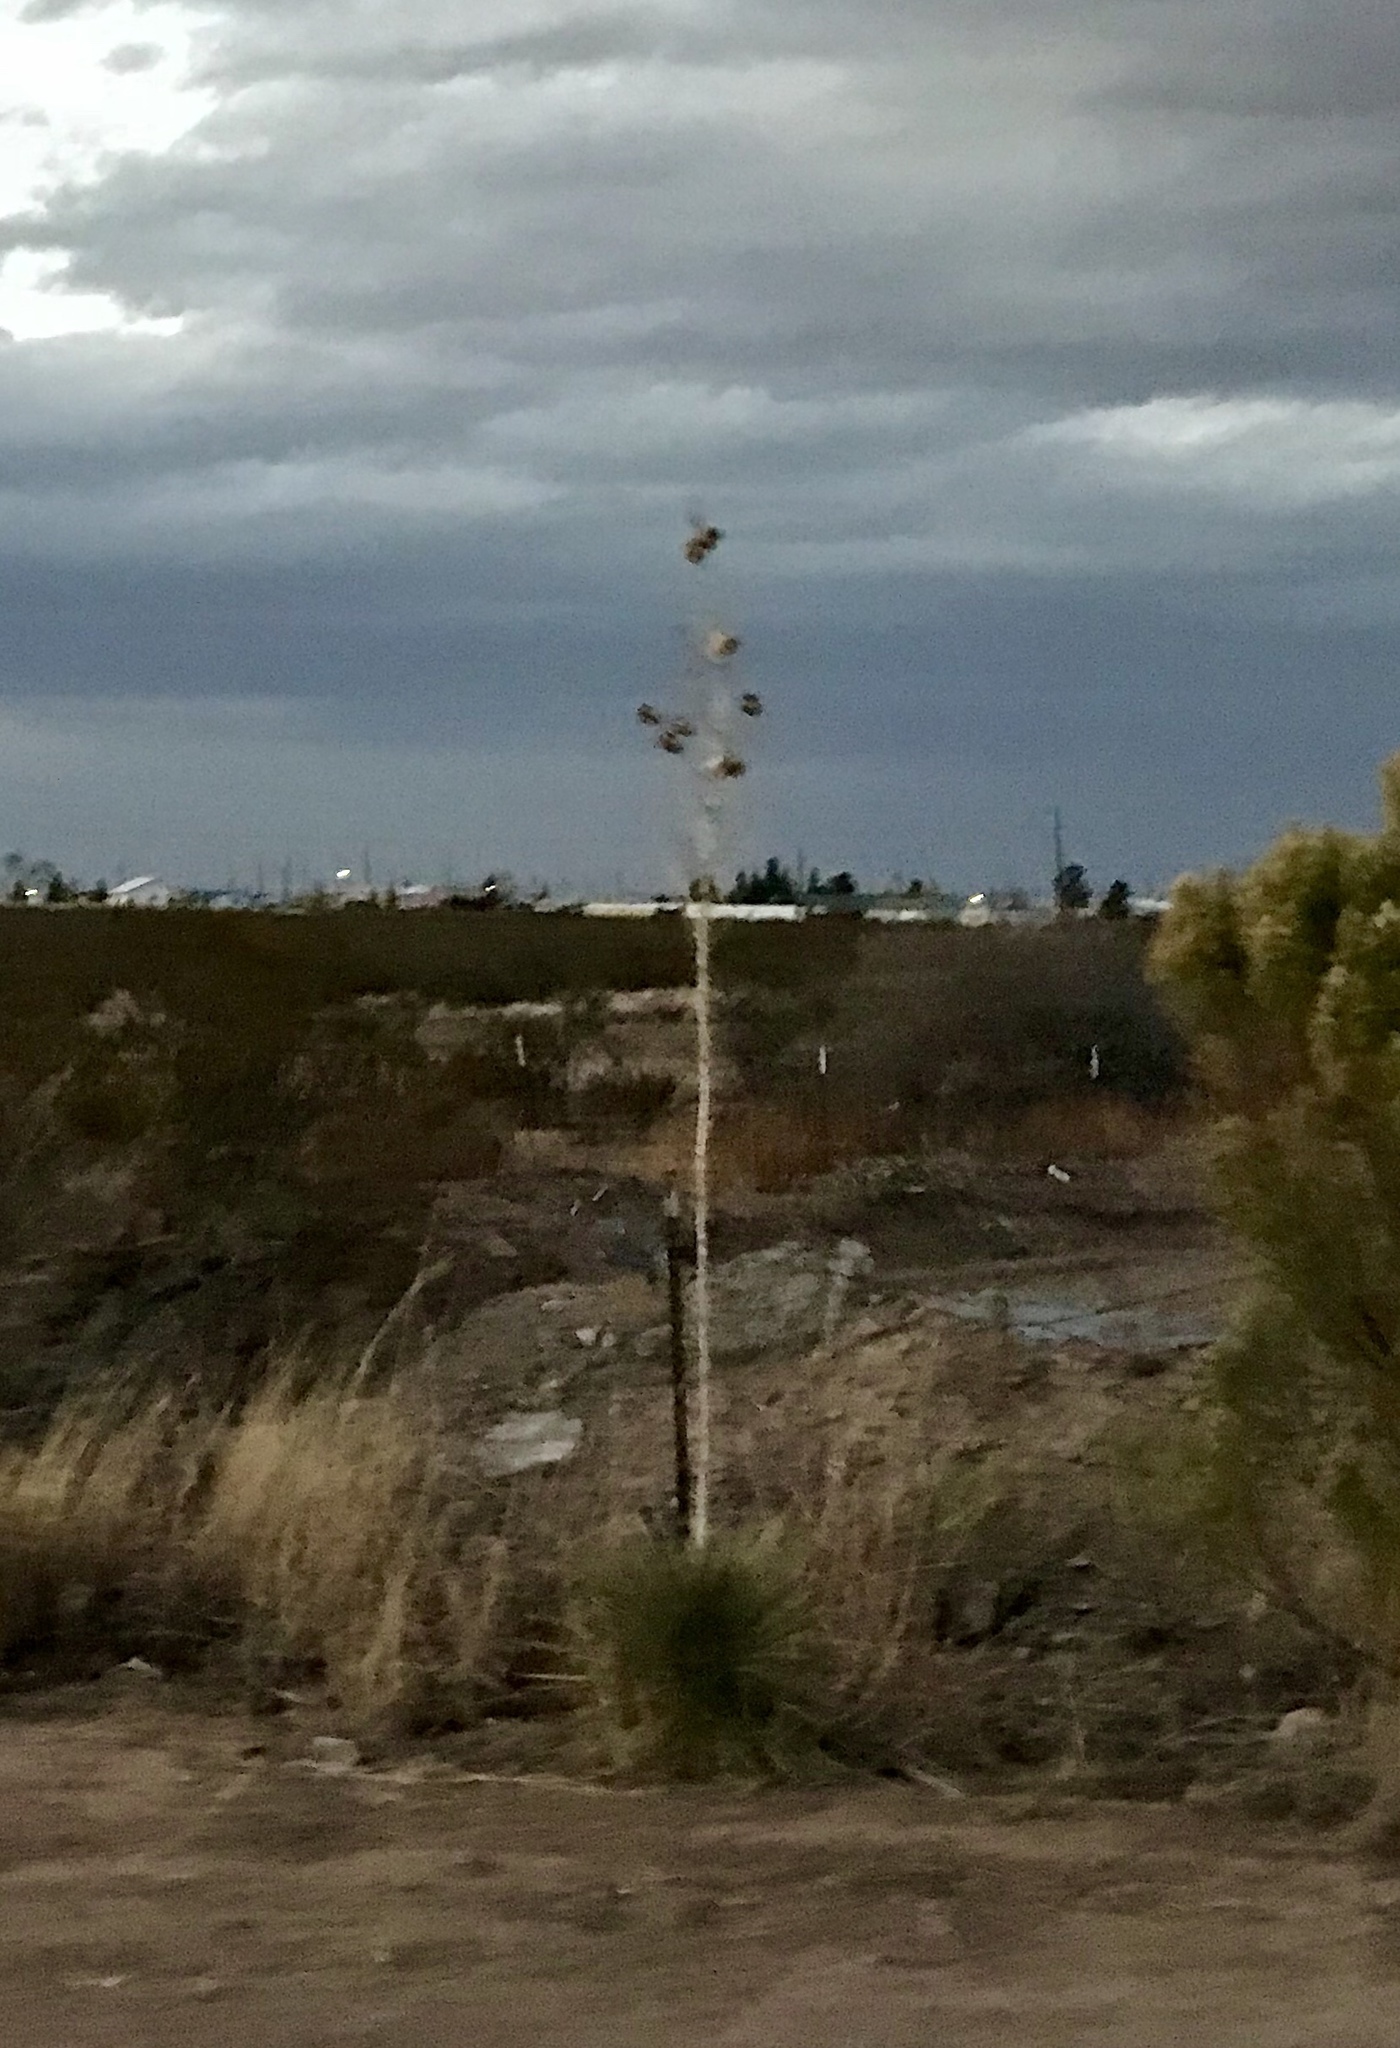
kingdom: Plantae
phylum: Tracheophyta
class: Liliopsida
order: Asparagales
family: Asparagaceae
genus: Yucca
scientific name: Yucca elata
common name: Palmella
